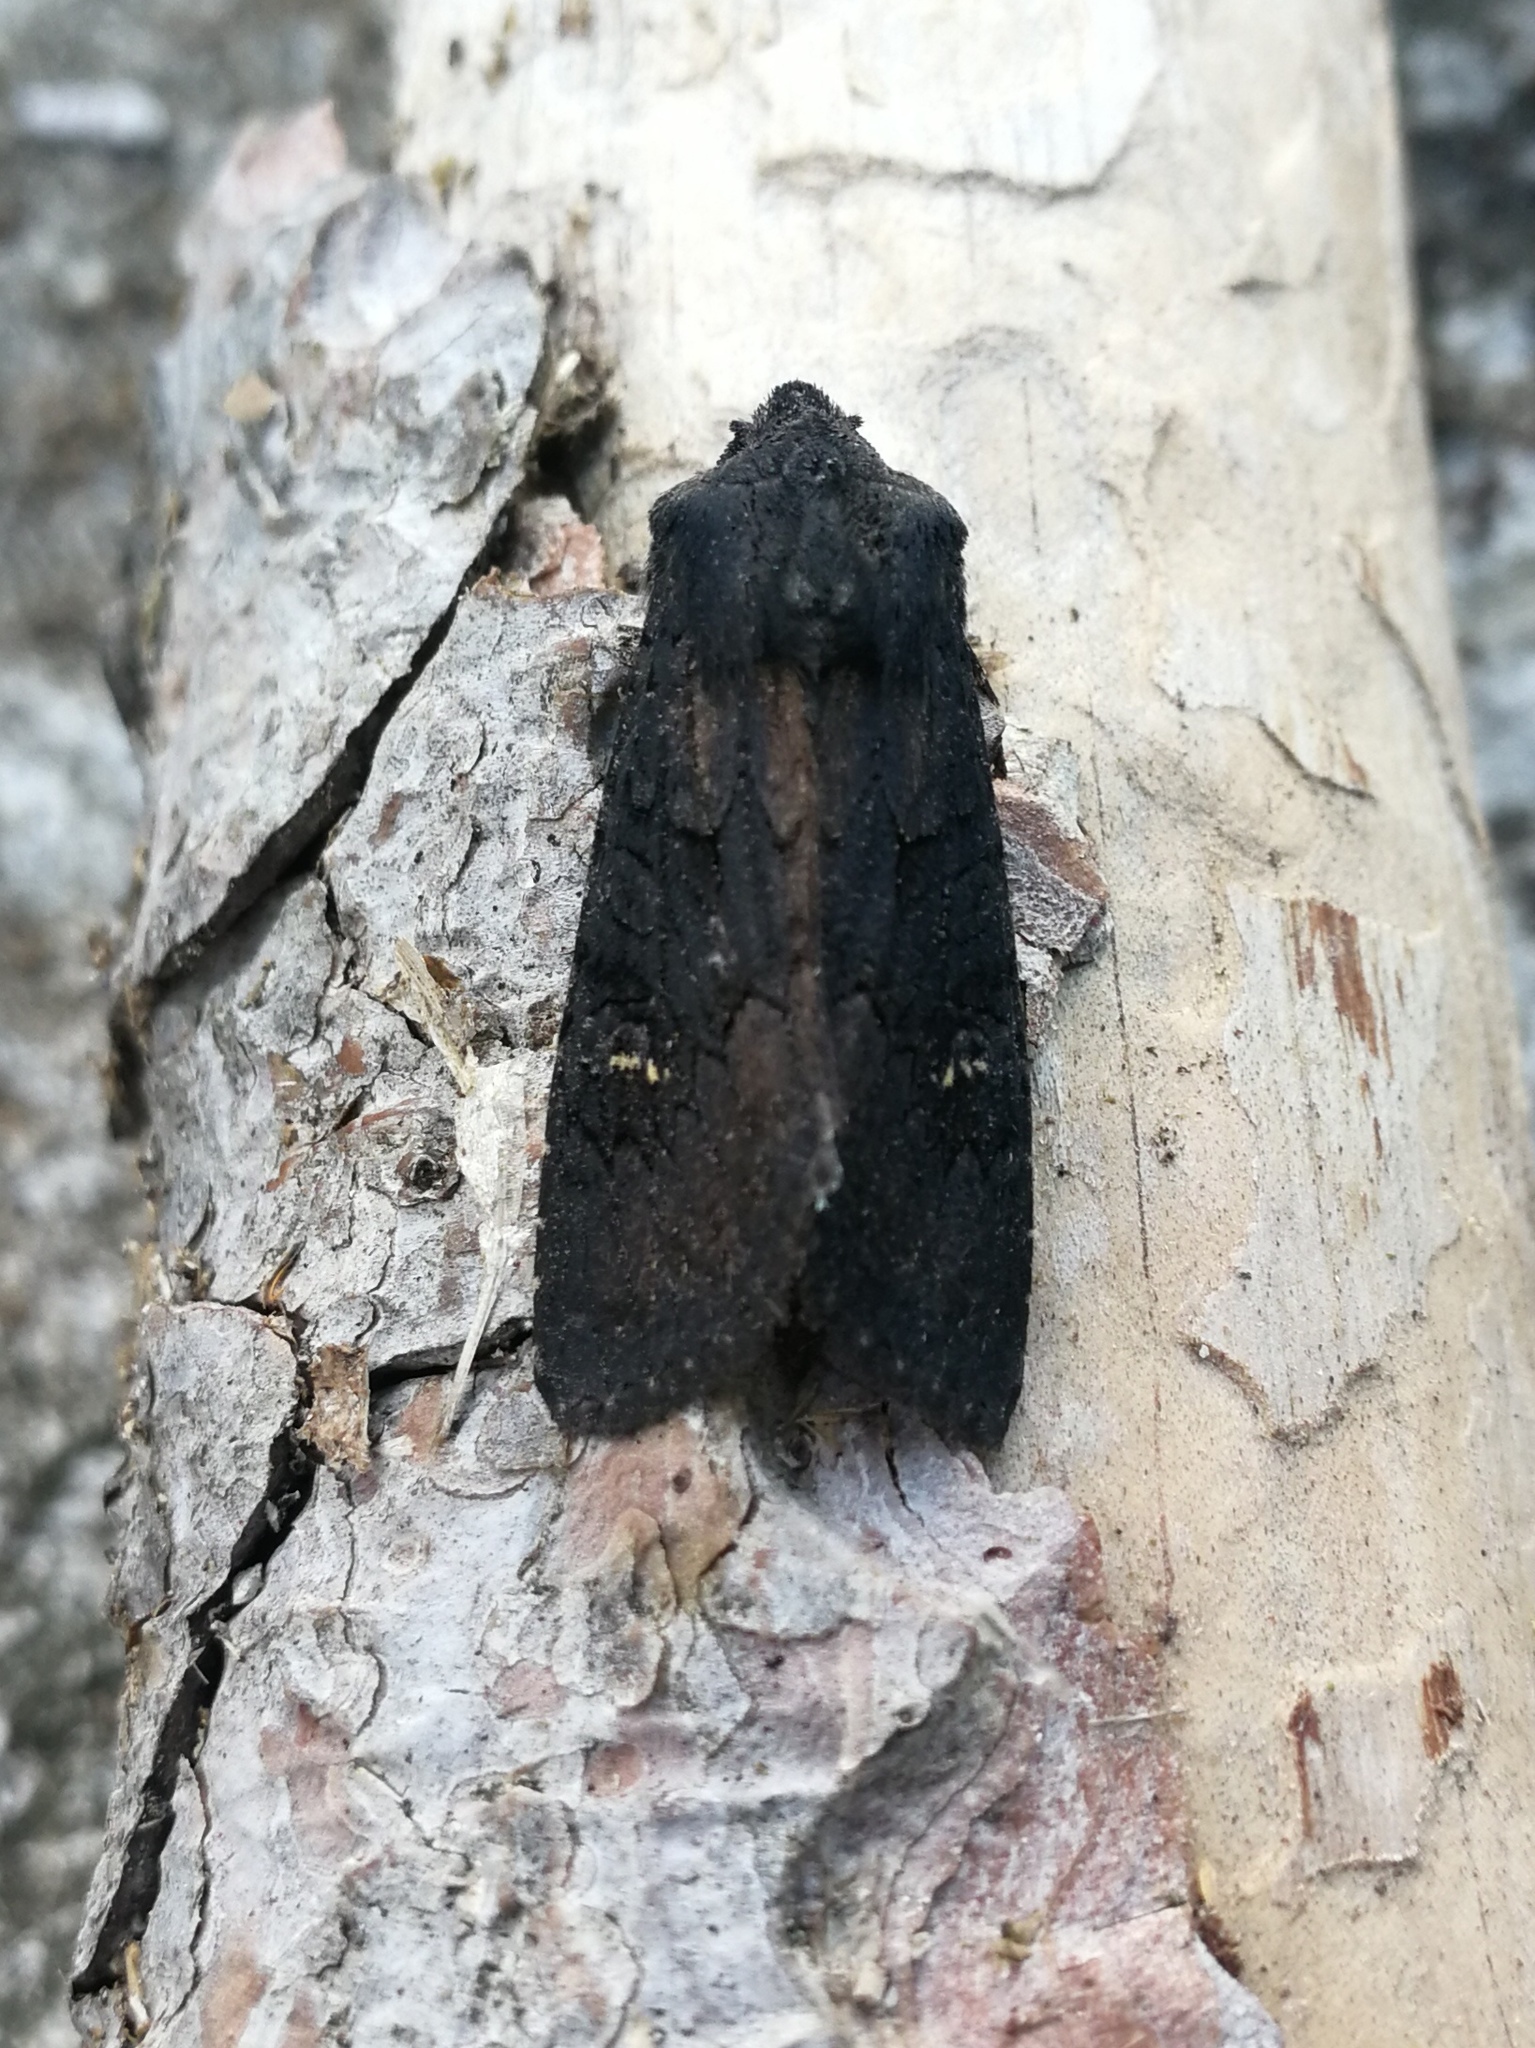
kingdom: Animalia
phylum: Arthropoda
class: Insecta
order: Lepidoptera
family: Noctuidae
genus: Aporophyla
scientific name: Aporophyla nigra
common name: Black rustic
